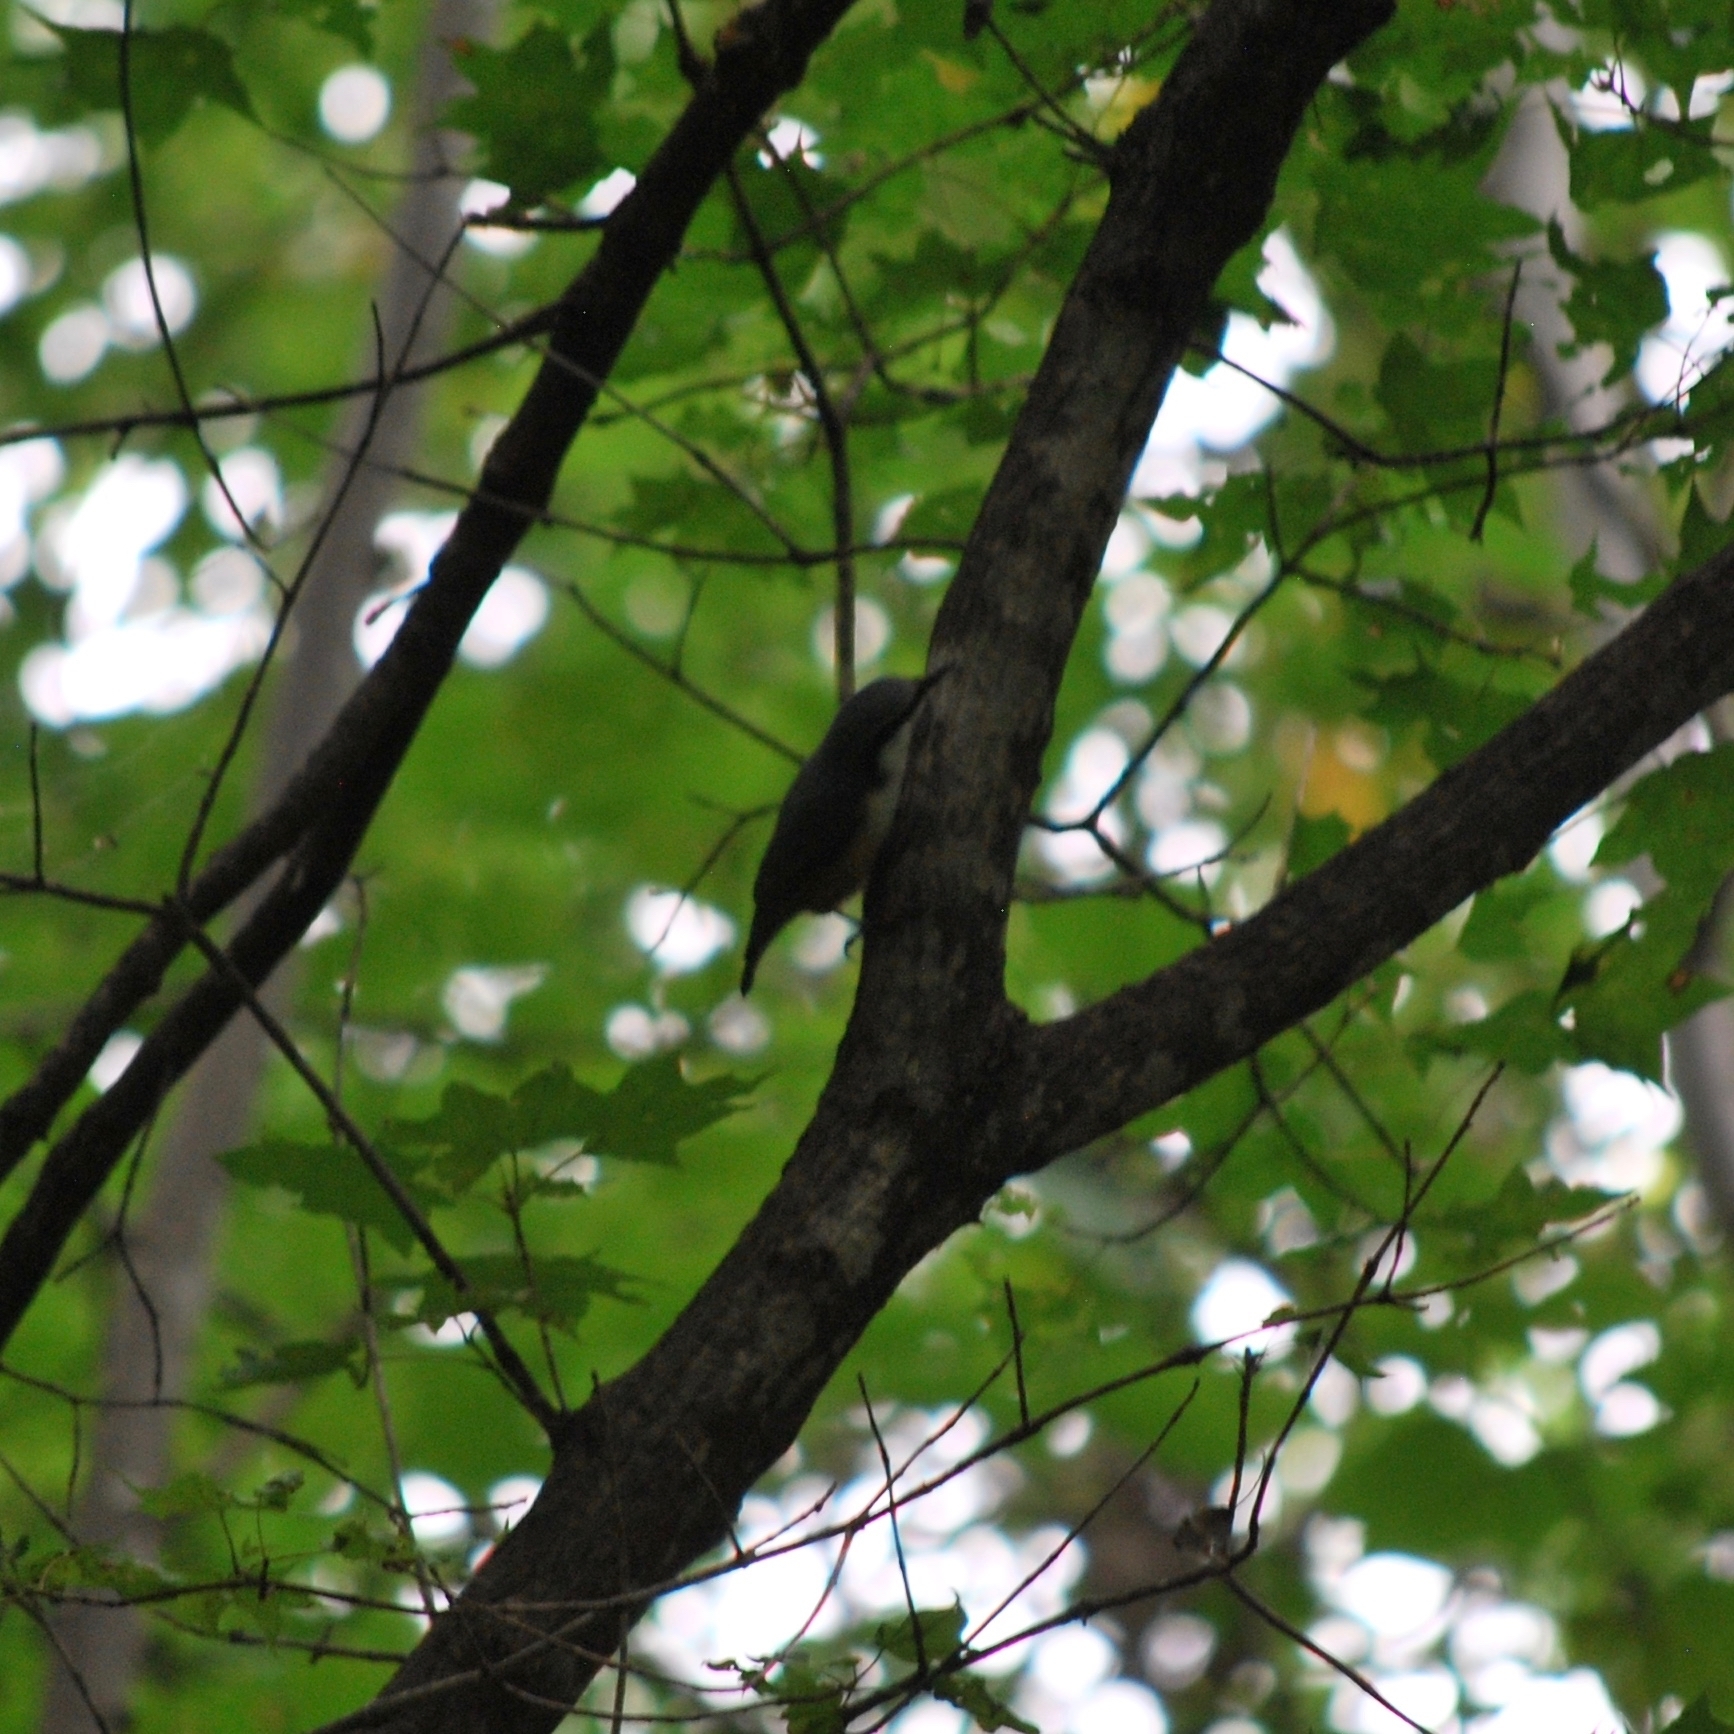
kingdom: Animalia
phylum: Chordata
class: Aves
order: Passeriformes
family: Sittidae
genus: Sitta
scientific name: Sitta europaea
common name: Eurasian nuthatch
